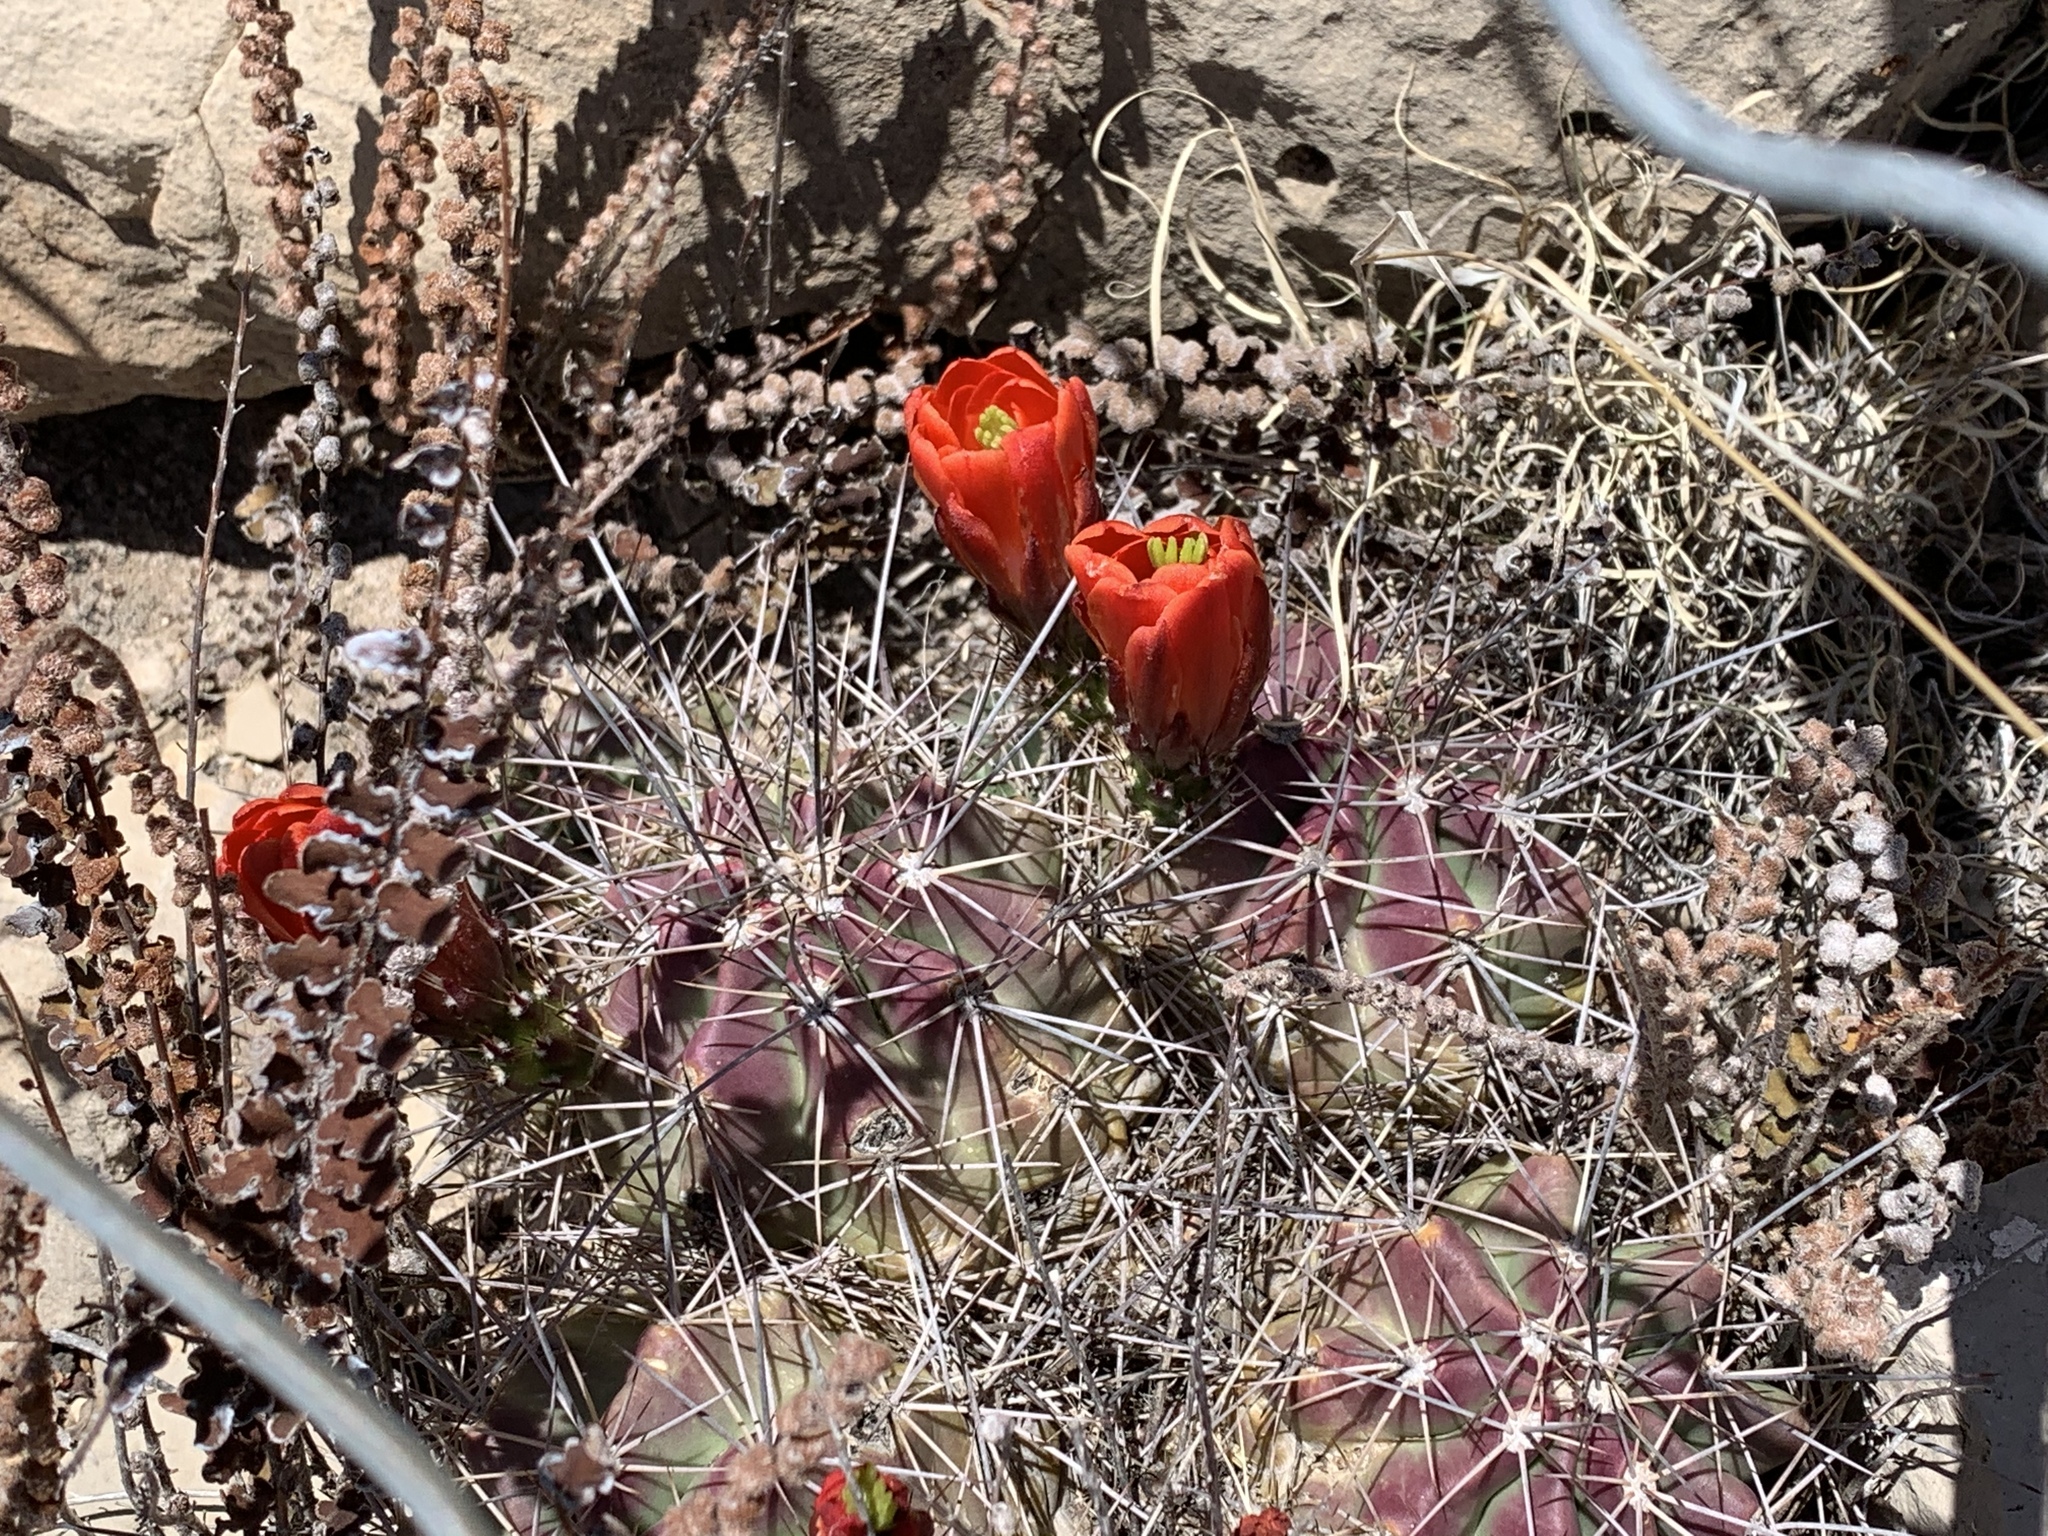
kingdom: Plantae
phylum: Tracheophyta
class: Magnoliopsida
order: Caryophyllales
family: Cactaceae
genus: Echinocereus
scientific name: Echinocereus coccineus
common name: Scarlet hedgehog cactus
